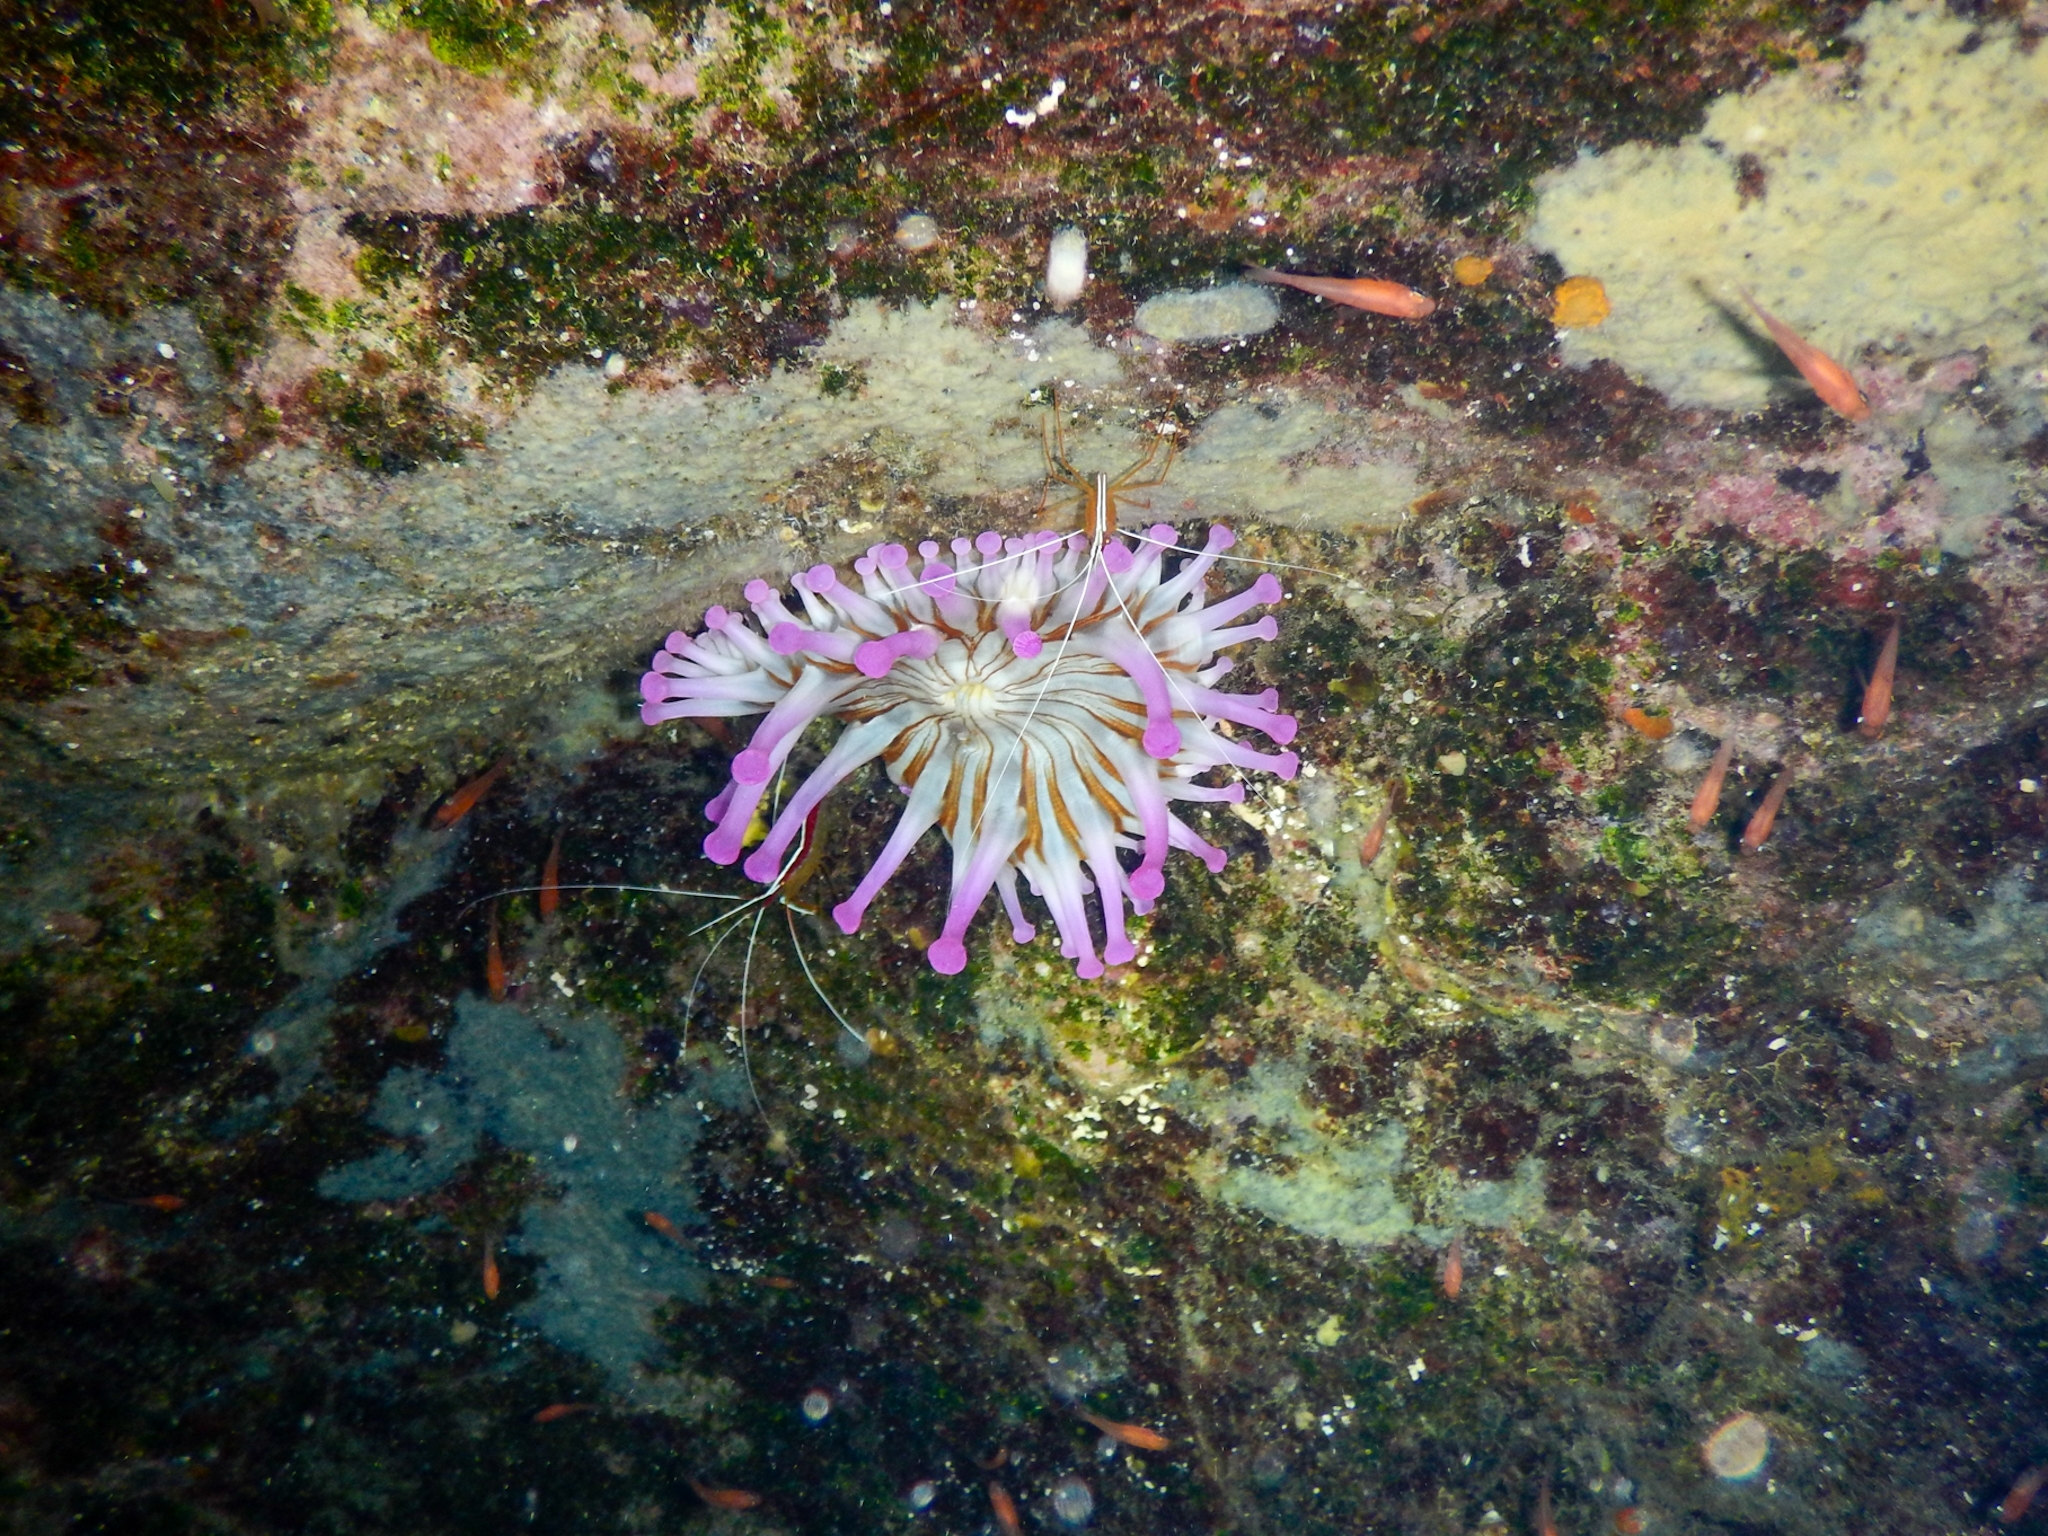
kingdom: Animalia
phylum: Cnidaria
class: Anthozoa
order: Actiniaria
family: Andvakiidae
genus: Telmatactis
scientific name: Telmatactis cricoides
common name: Blunt-tentacled anemone
